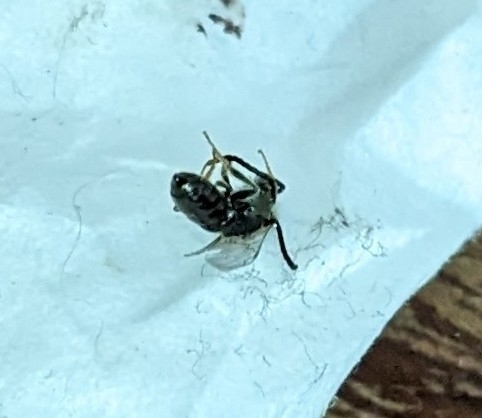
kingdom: Animalia
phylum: Arthropoda
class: Insecta
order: Hymenoptera
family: Halictidae
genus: Dialictus
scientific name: Dialictus
